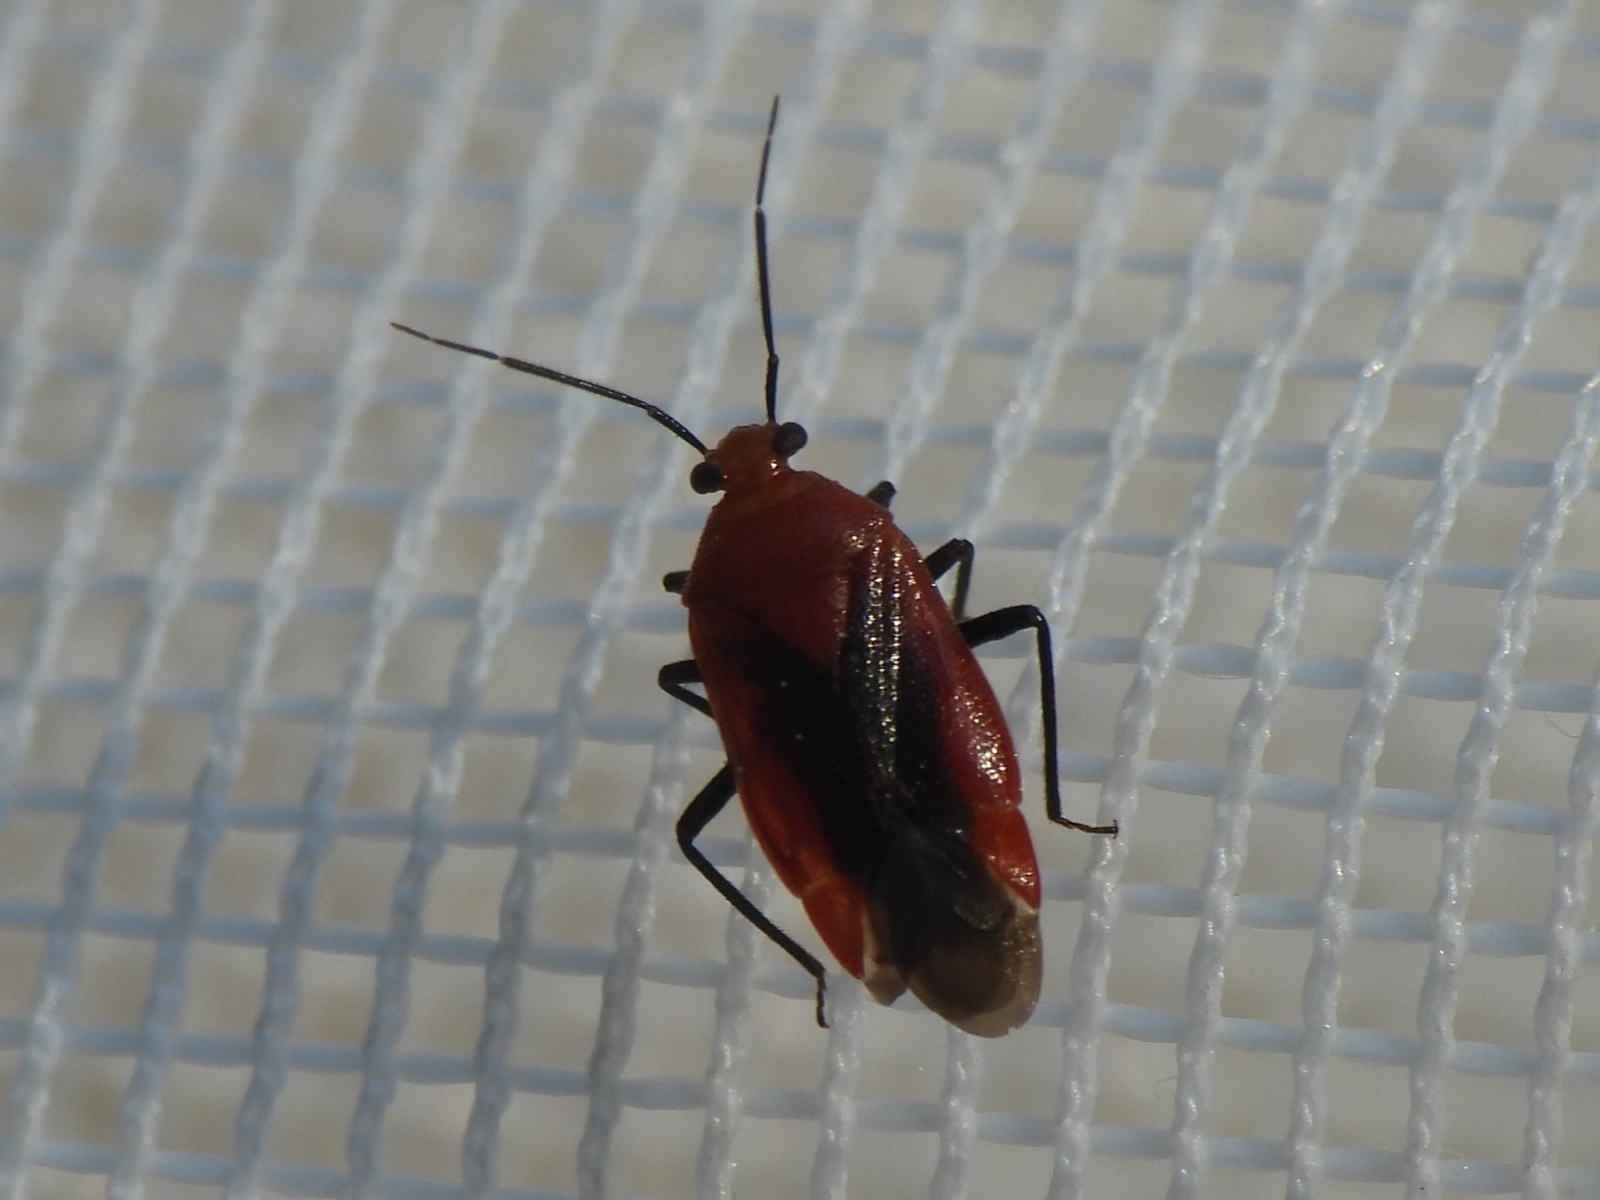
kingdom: Animalia
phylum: Arthropoda
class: Insecta
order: Hemiptera
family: Miridae
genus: Tropidosteptes
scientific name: Tropidosteptes cardinalis
